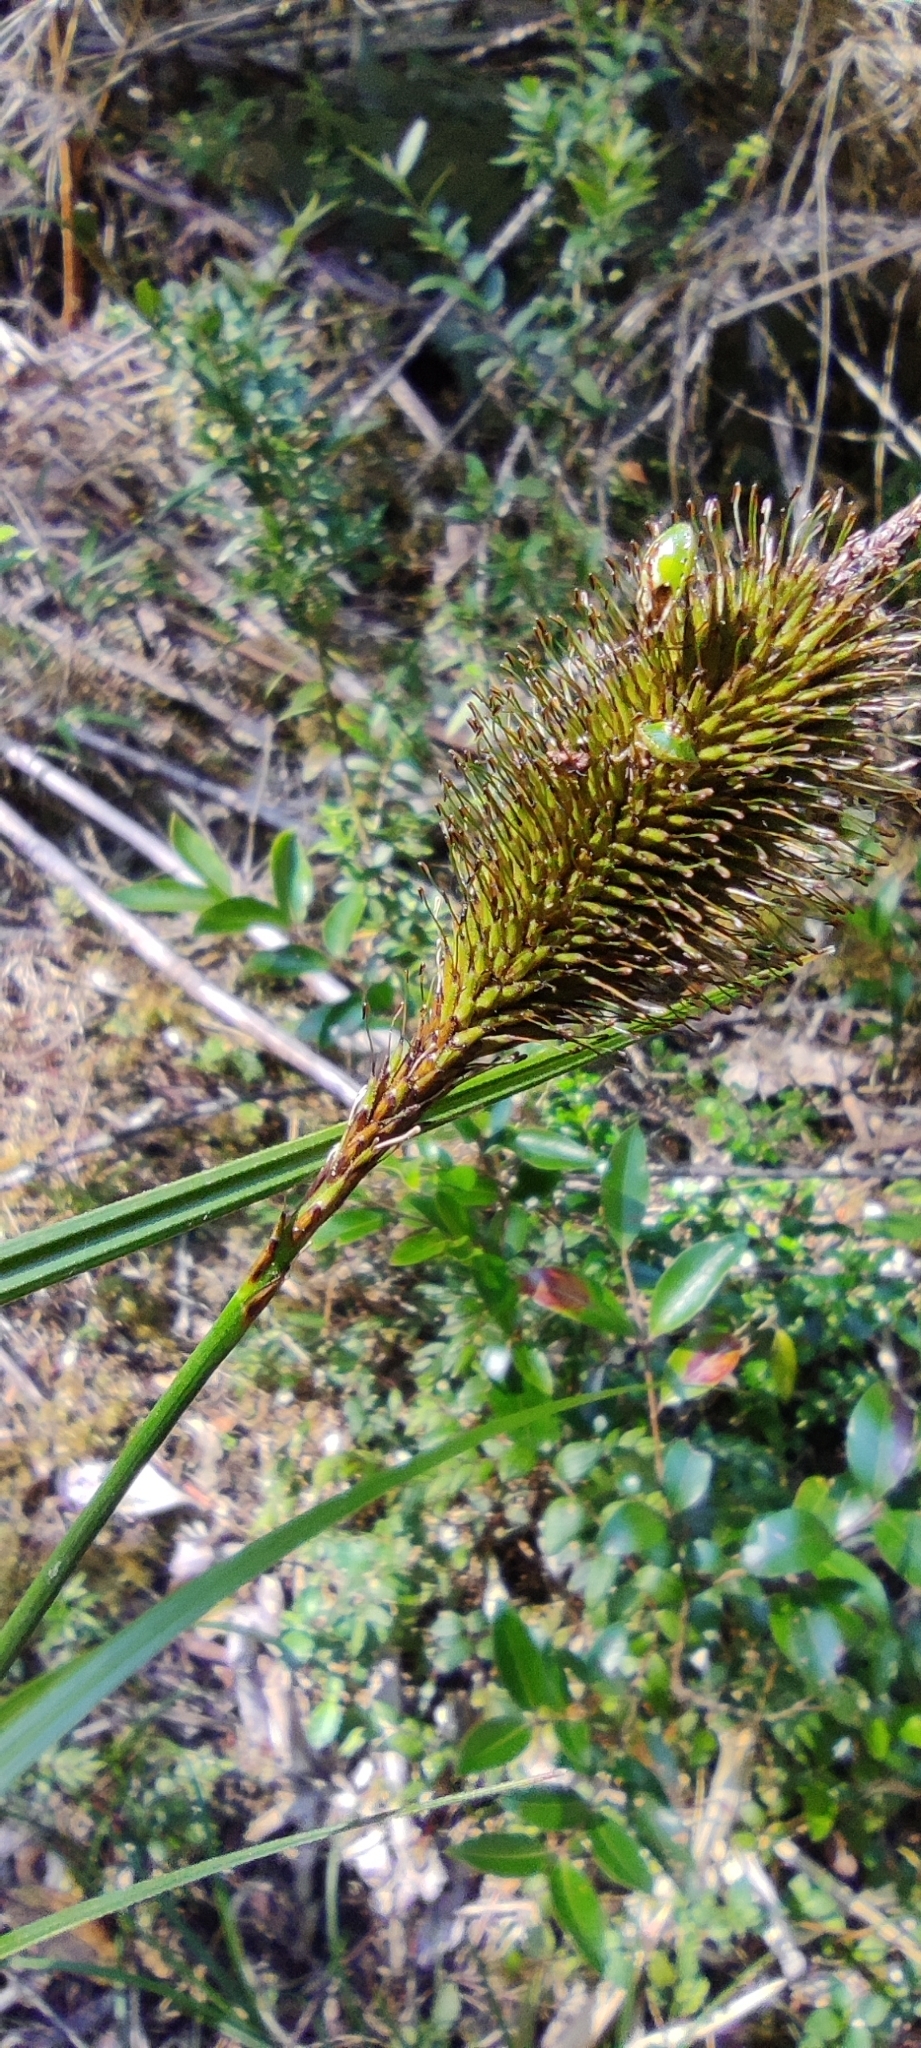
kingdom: Plantae
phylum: Tracheophyta
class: Liliopsida
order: Poales
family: Cyperaceae
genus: Carex
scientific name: Carex multifaria
